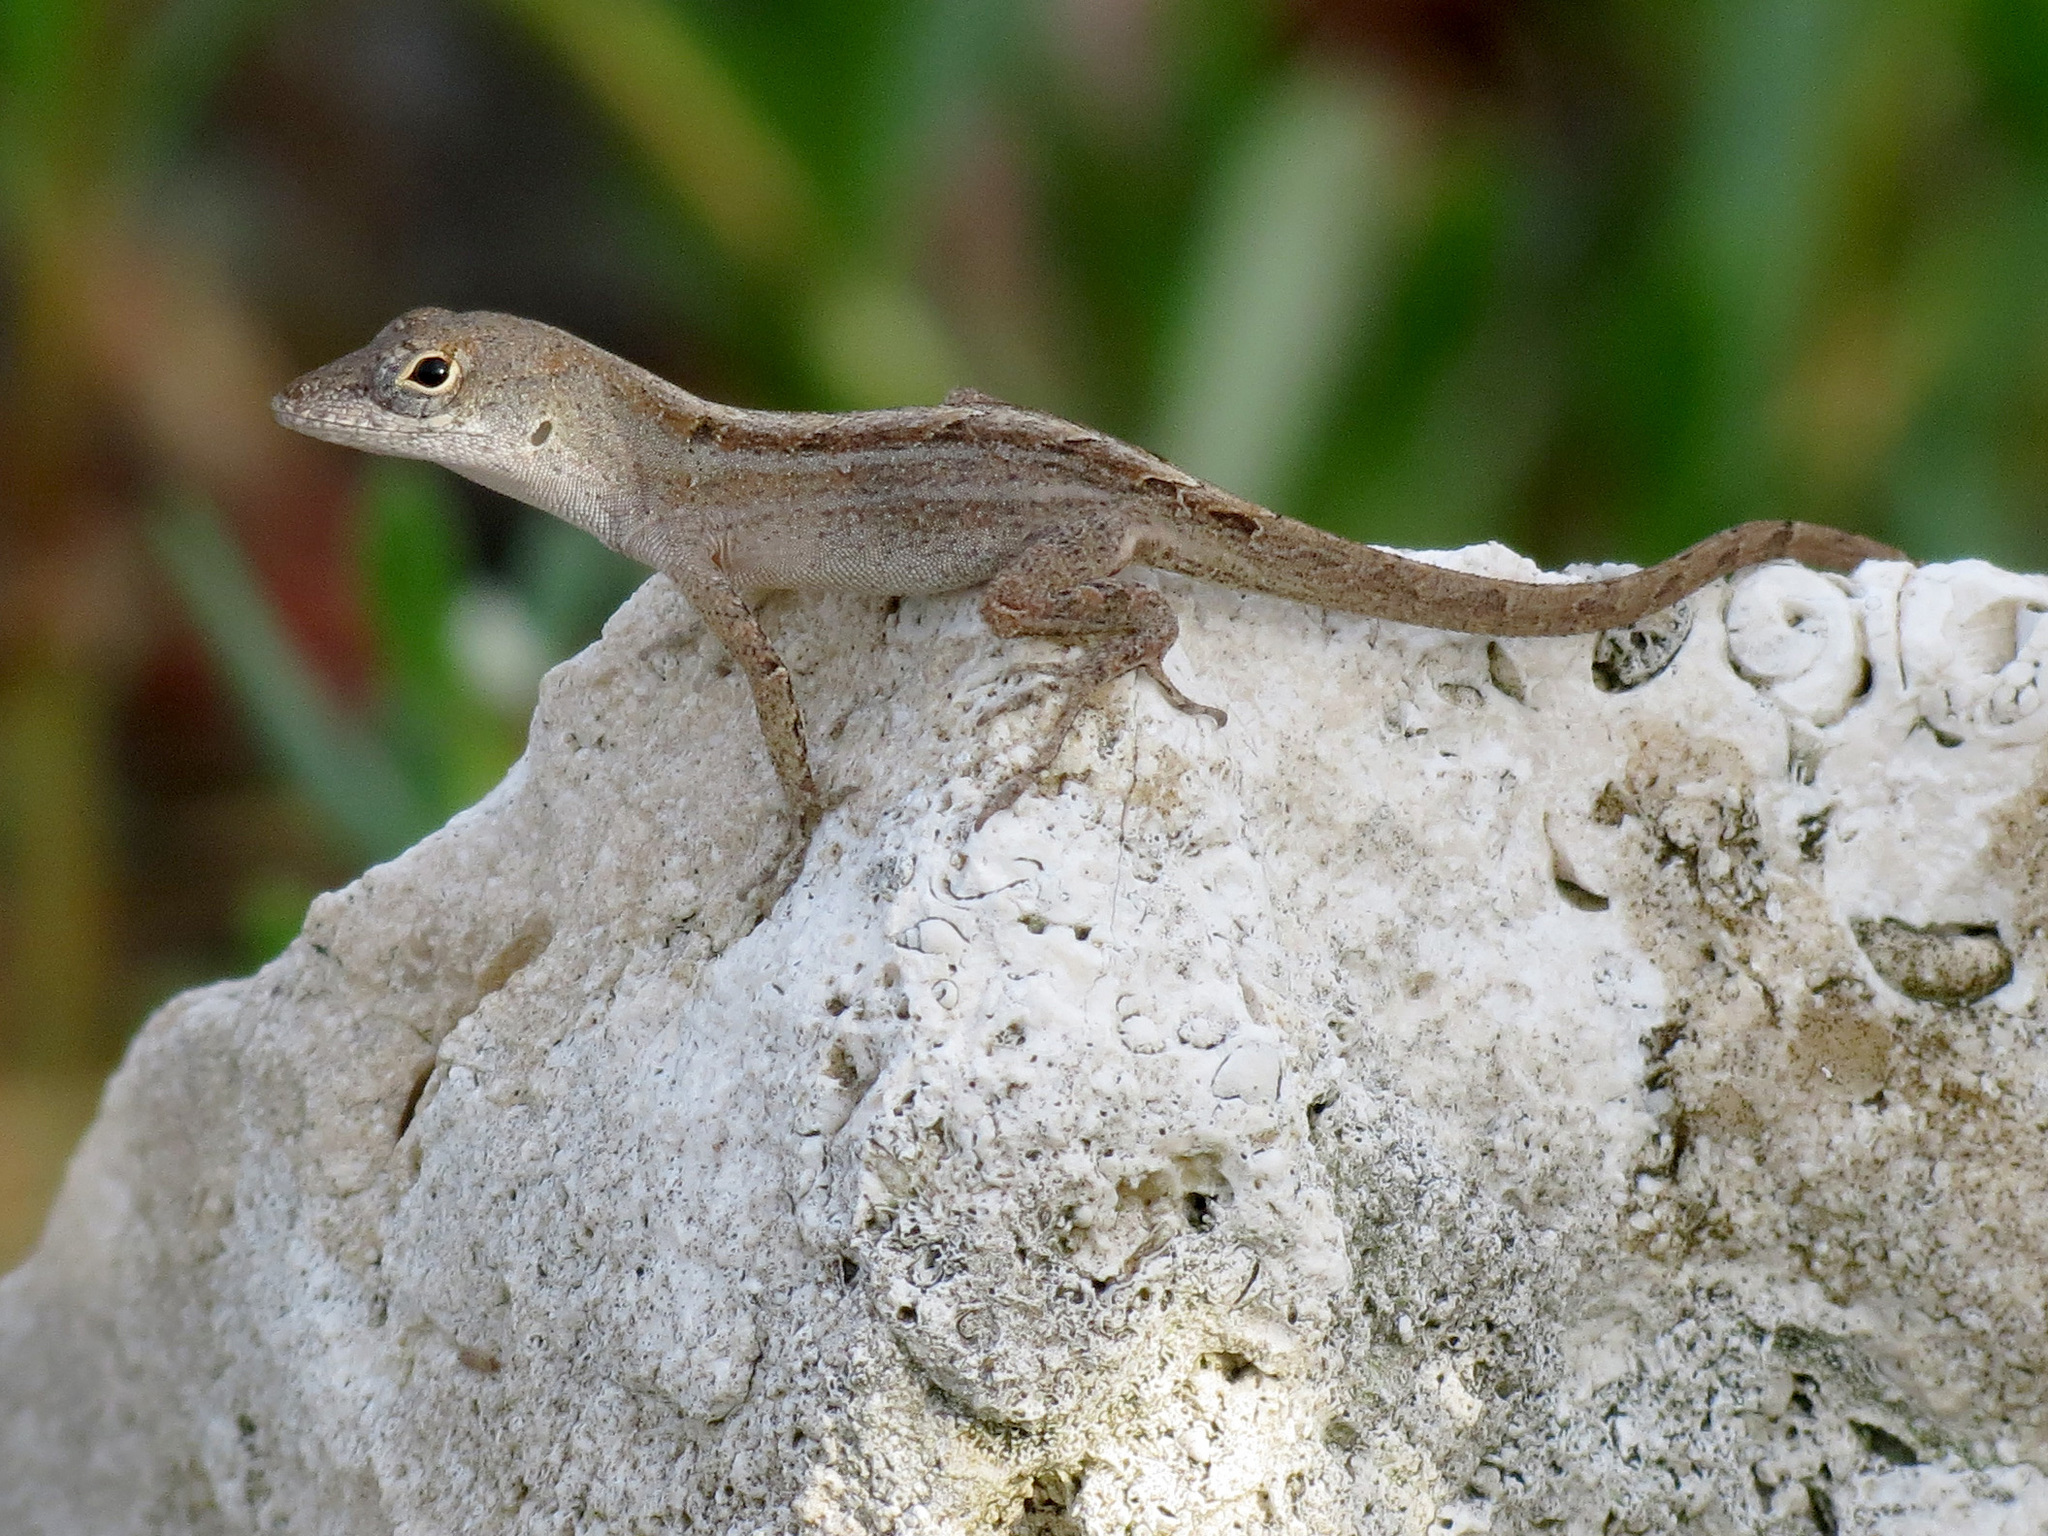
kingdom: Animalia
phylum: Chordata
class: Squamata
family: Dactyloidae
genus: Anolis
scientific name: Anolis sagrei
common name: Brown anole
